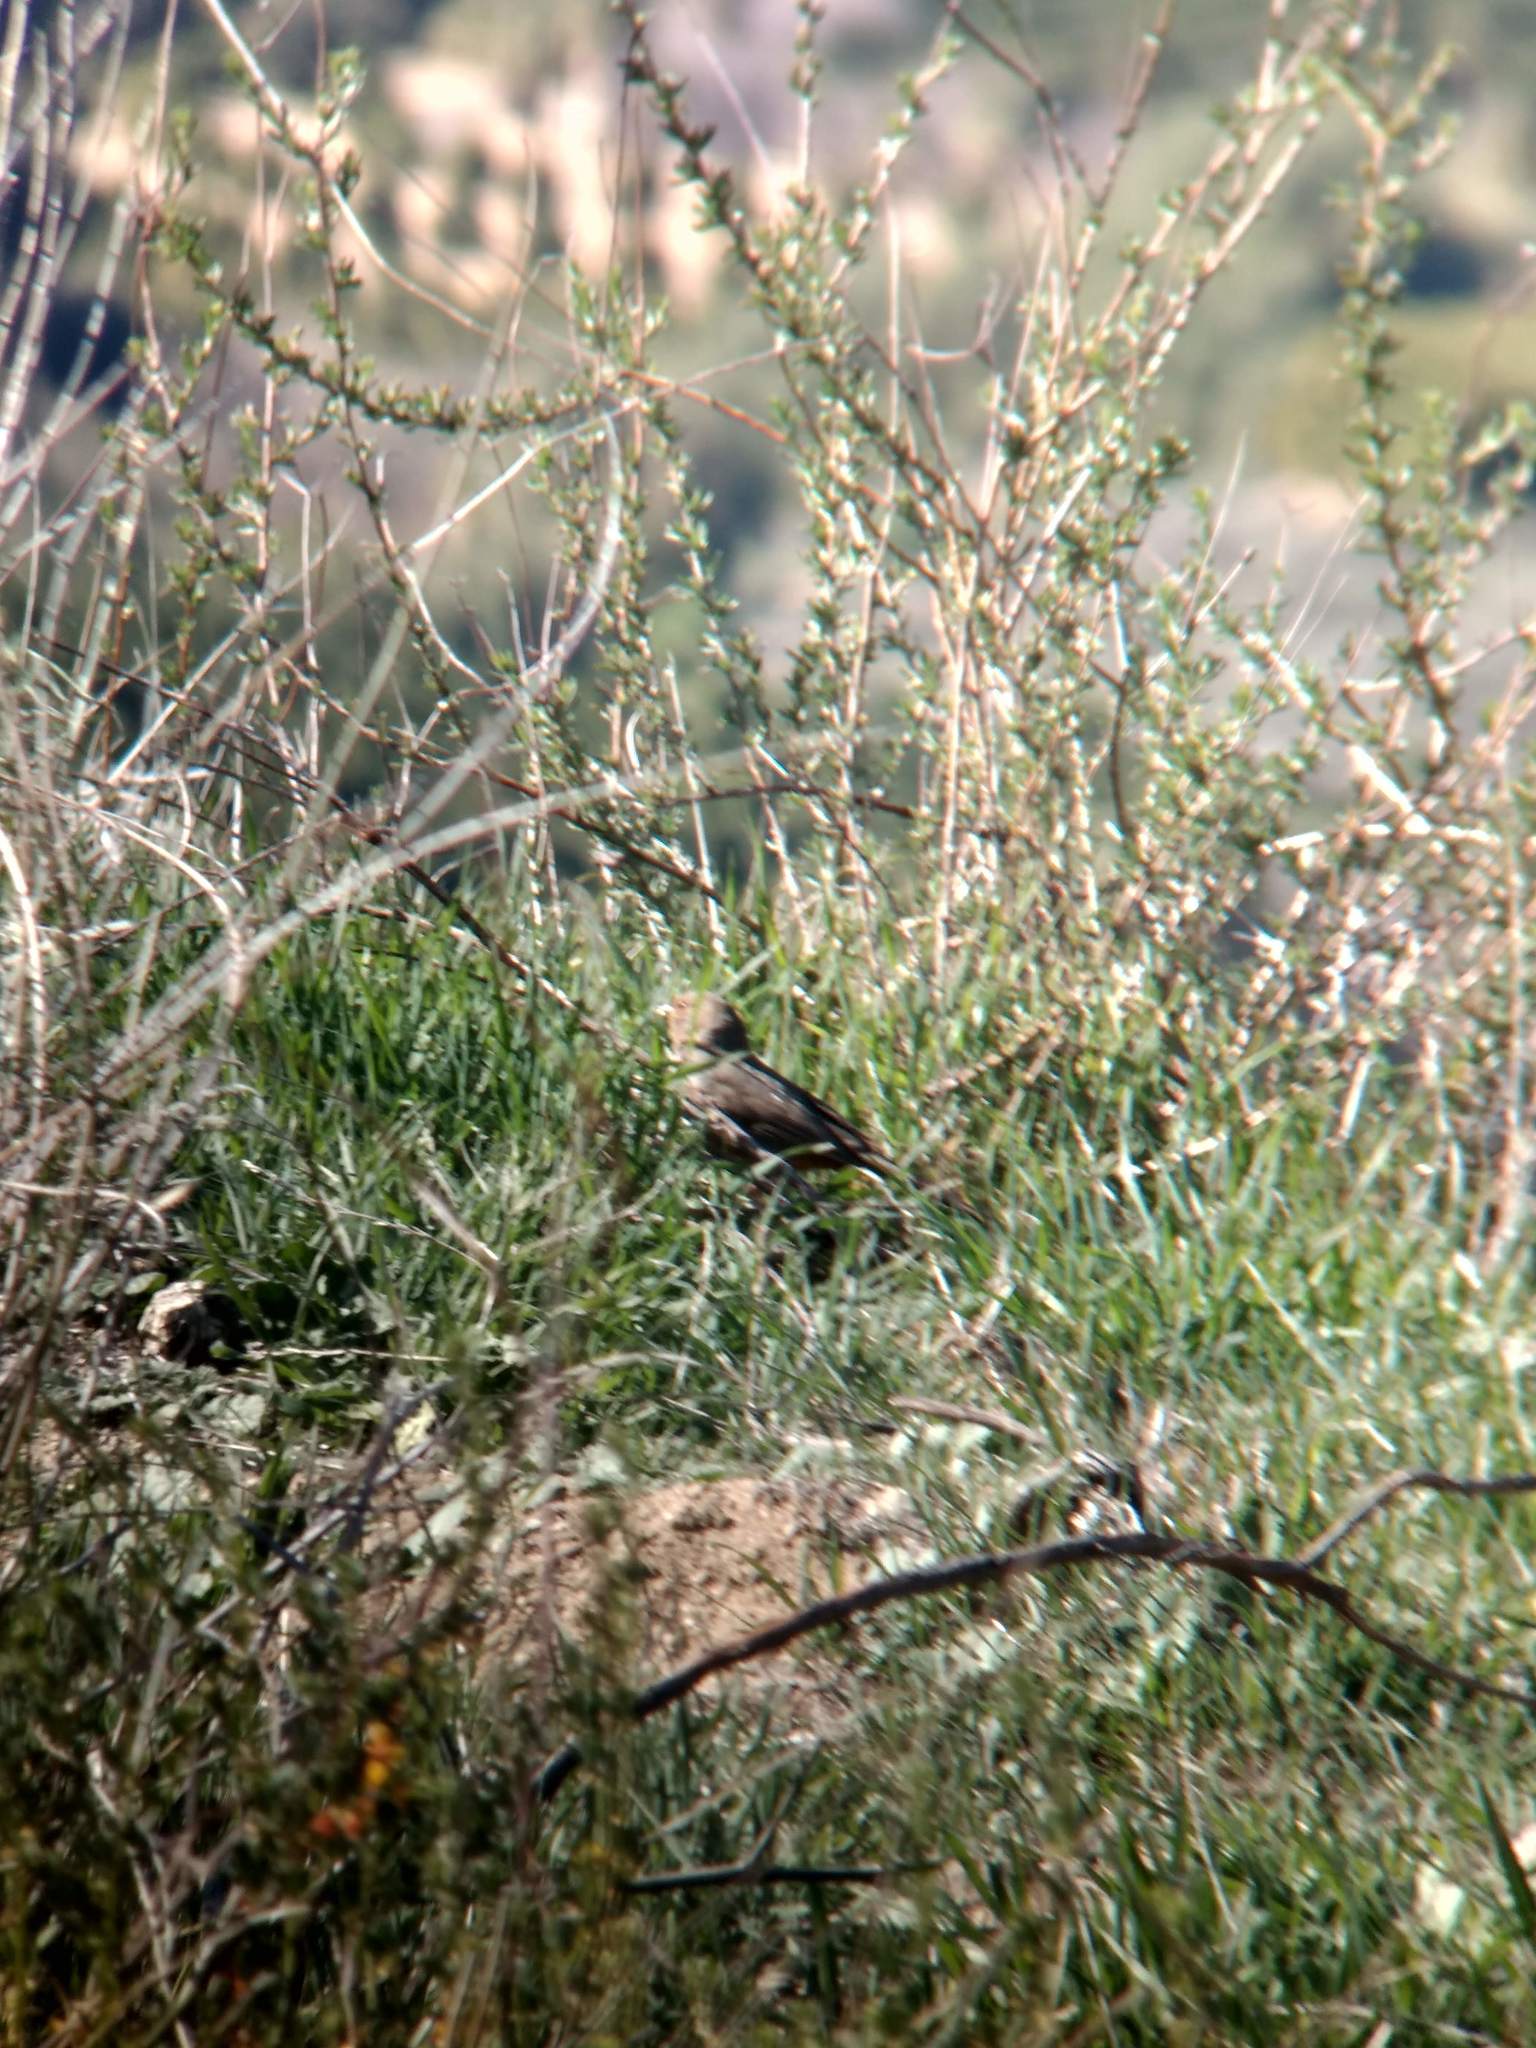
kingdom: Animalia
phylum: Chordata
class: Aves
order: Passeriformes
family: Passerellidae
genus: Melozone
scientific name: Melozone crissalis
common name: California towhee
